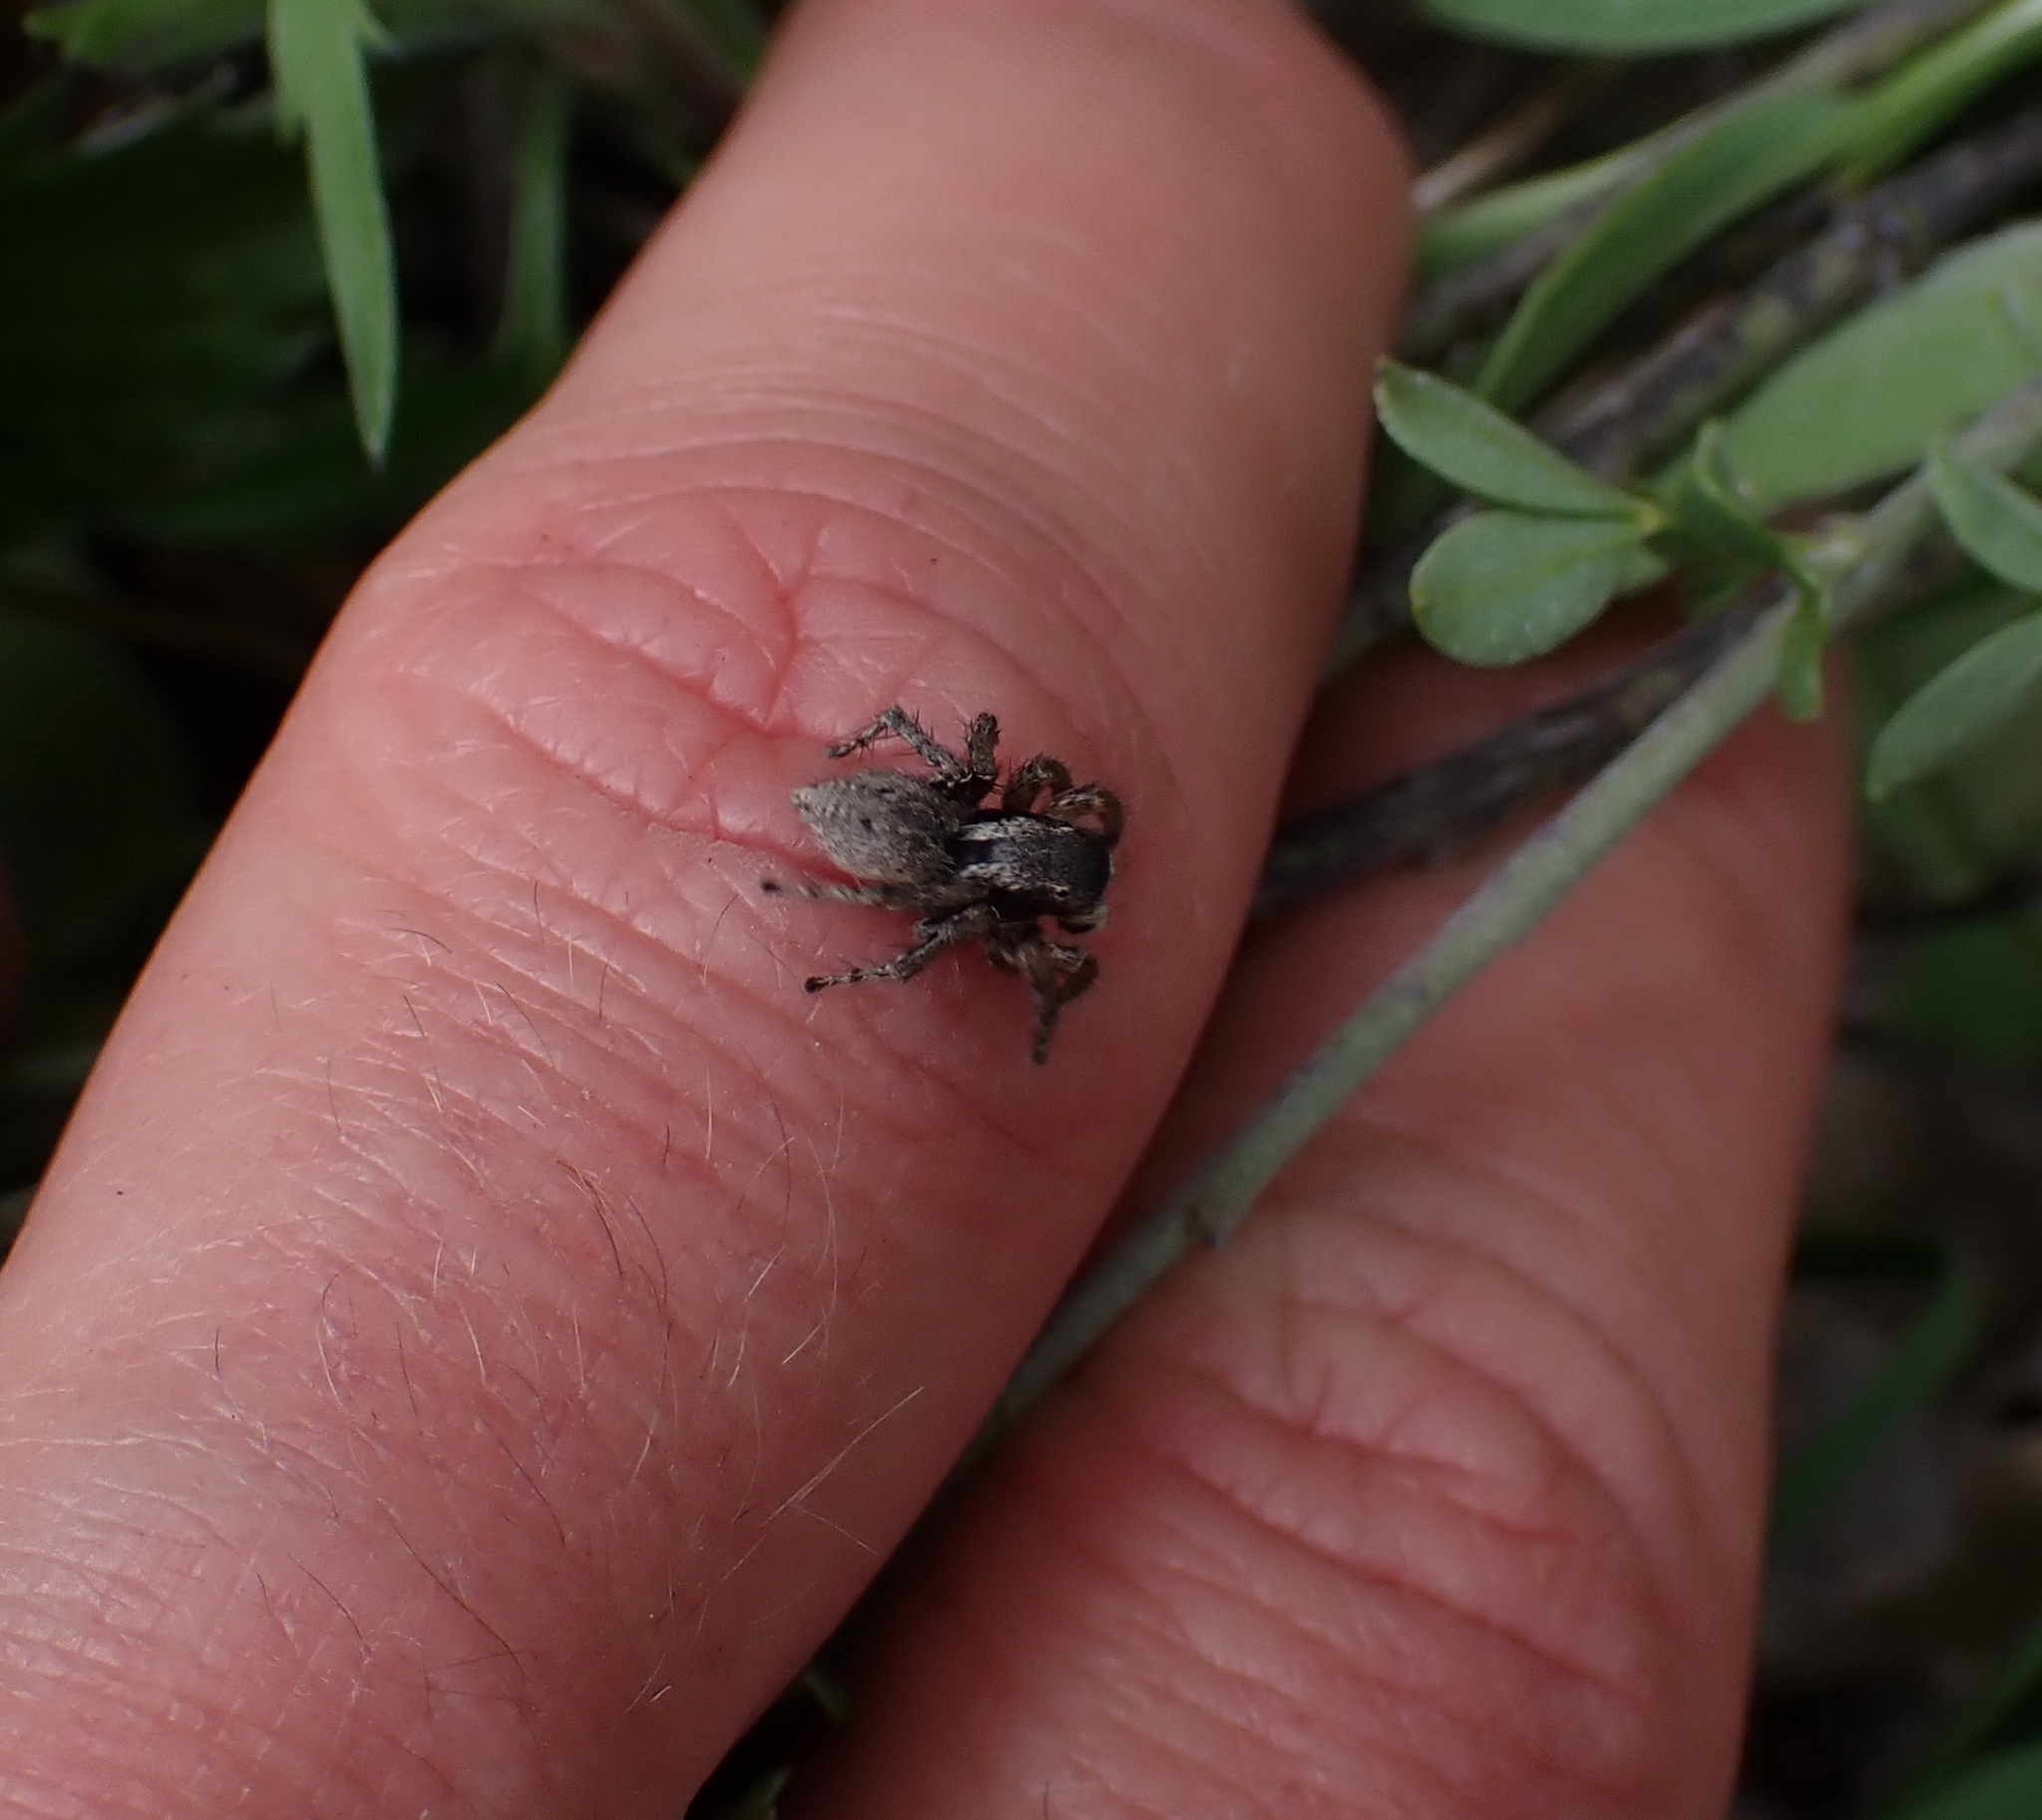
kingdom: Animalia
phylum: Arthropoda
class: Arachnida
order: Araneae
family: Salticidae
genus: Asianellus
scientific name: Asianellus festivus
